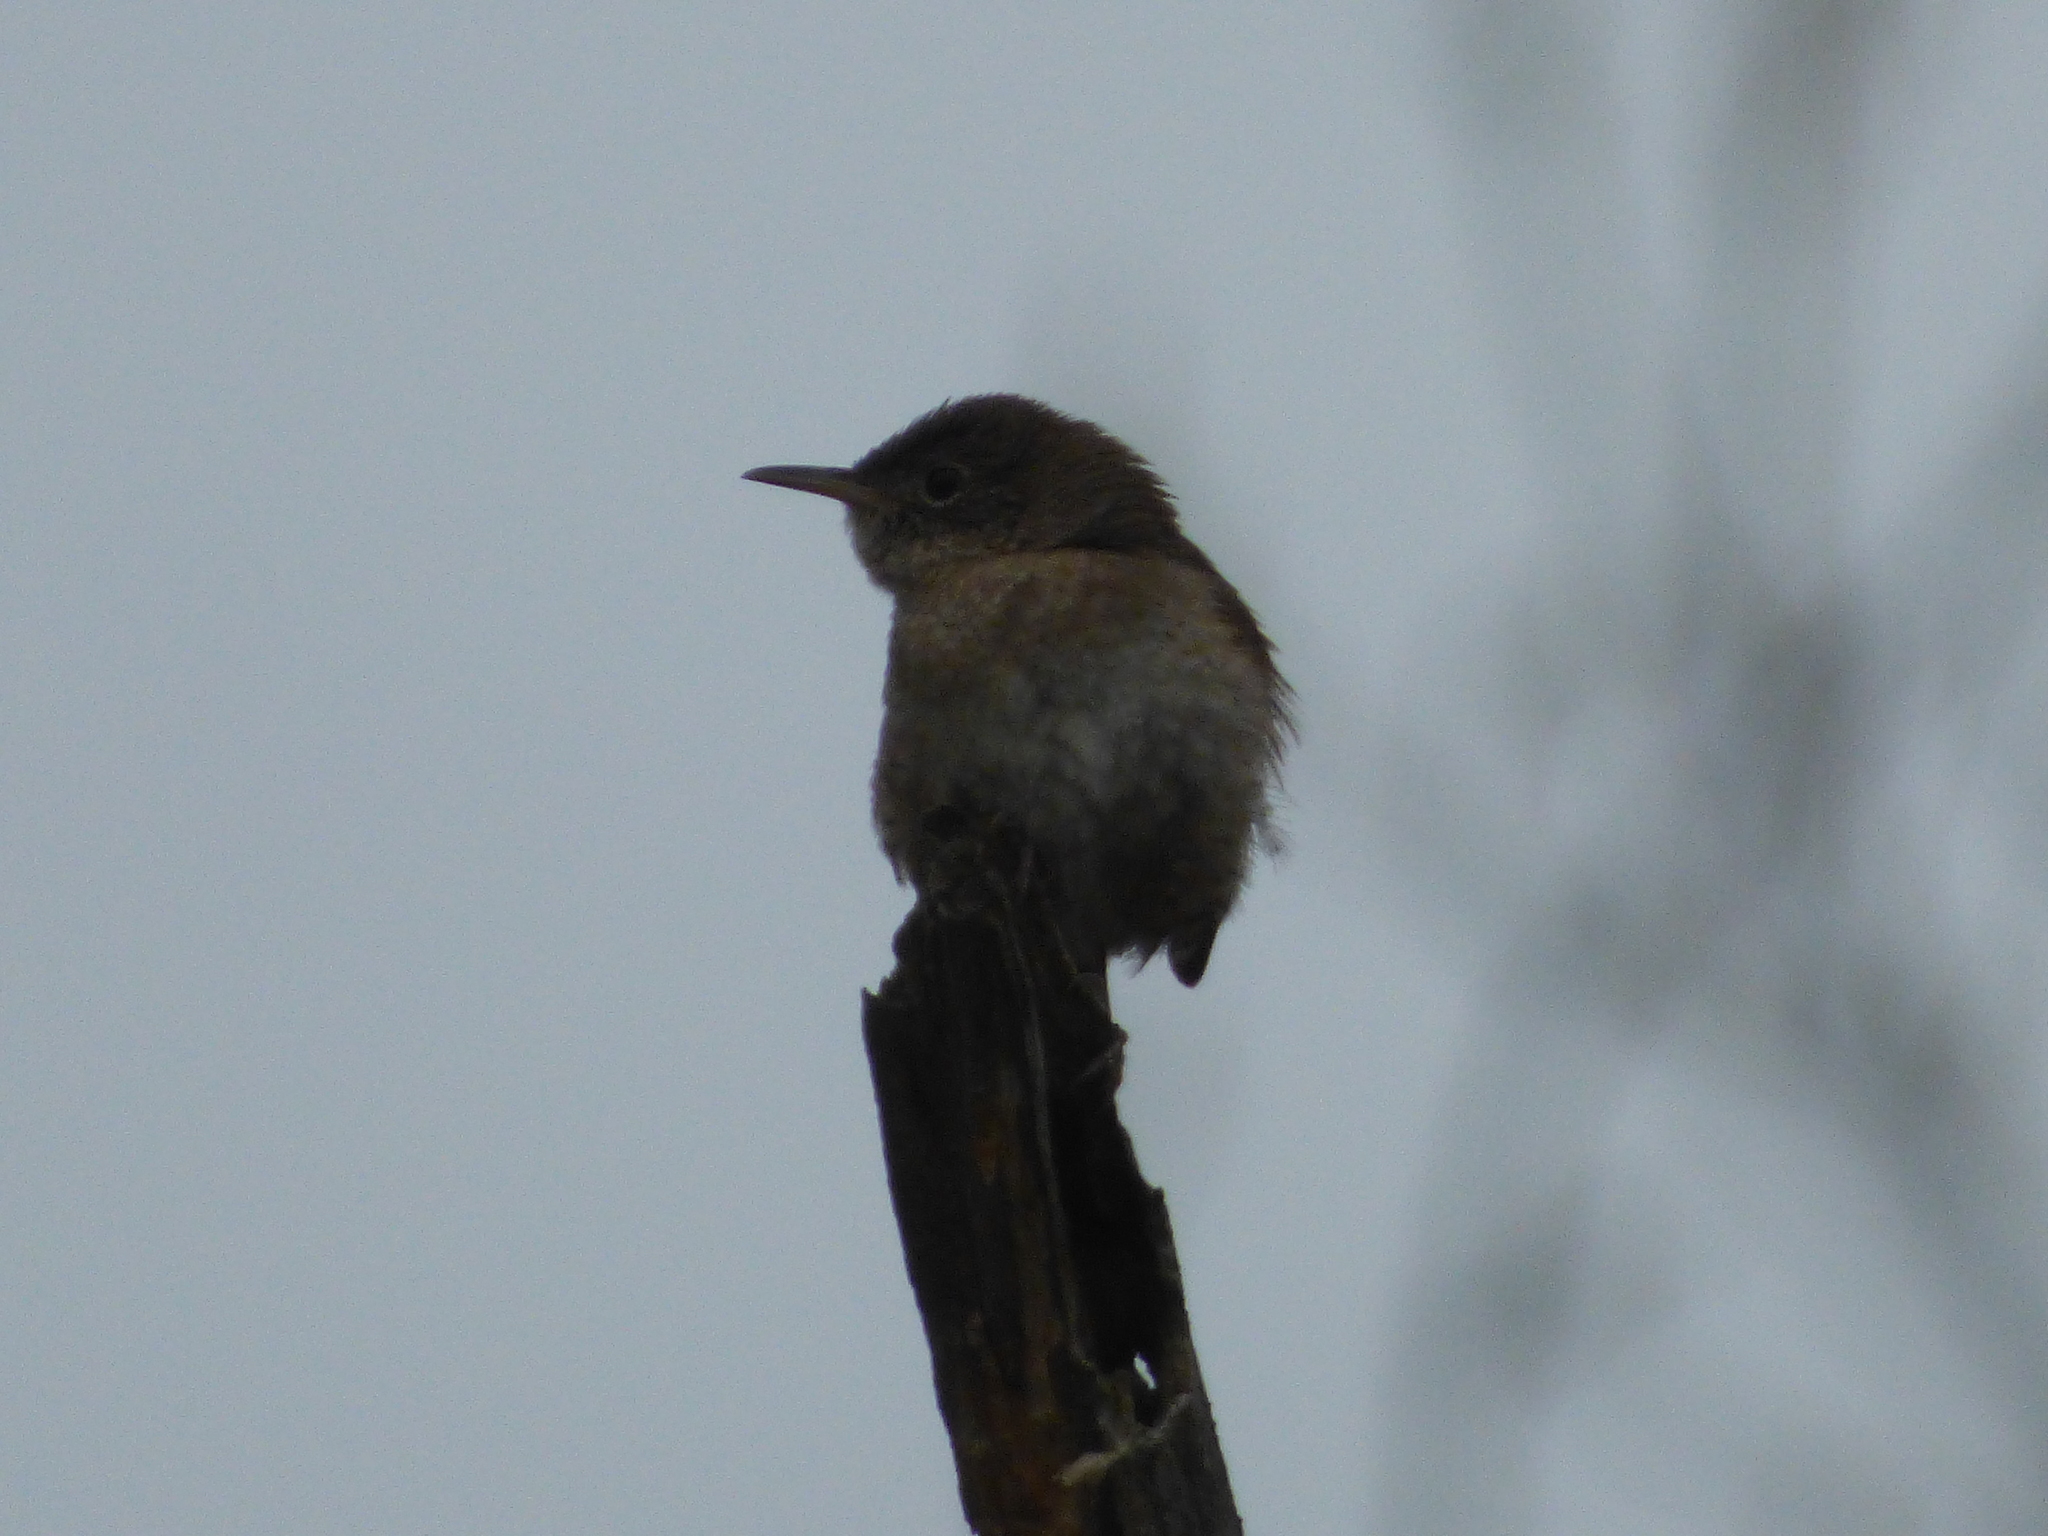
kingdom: Animalia
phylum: Chordata
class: Aves
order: Passeriformes
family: Troglodytidae
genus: Troglodytes
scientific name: Troglodytes aedon
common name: House wren
